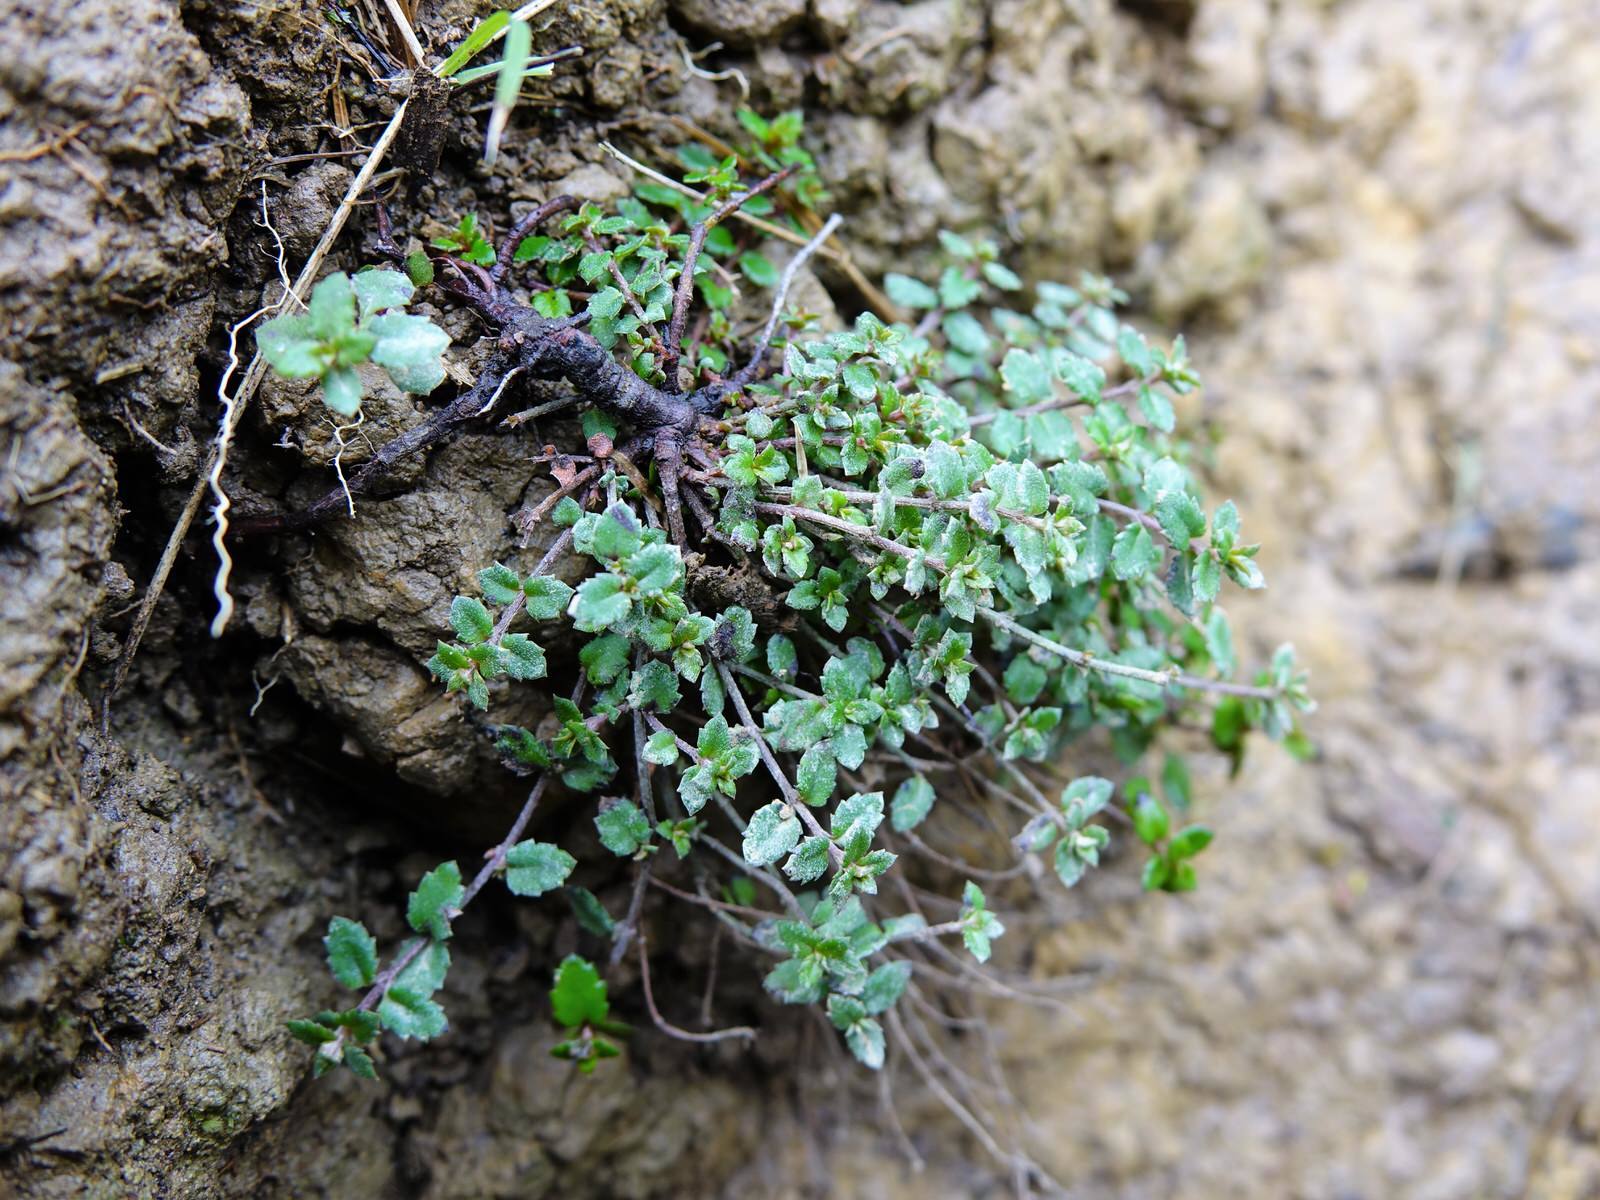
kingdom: Plantae
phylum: Tracheophyta
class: Magnoliopsida
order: Saxifragales
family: Haloragaceae
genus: Gonocarpus
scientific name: Gonocarpus incanus
